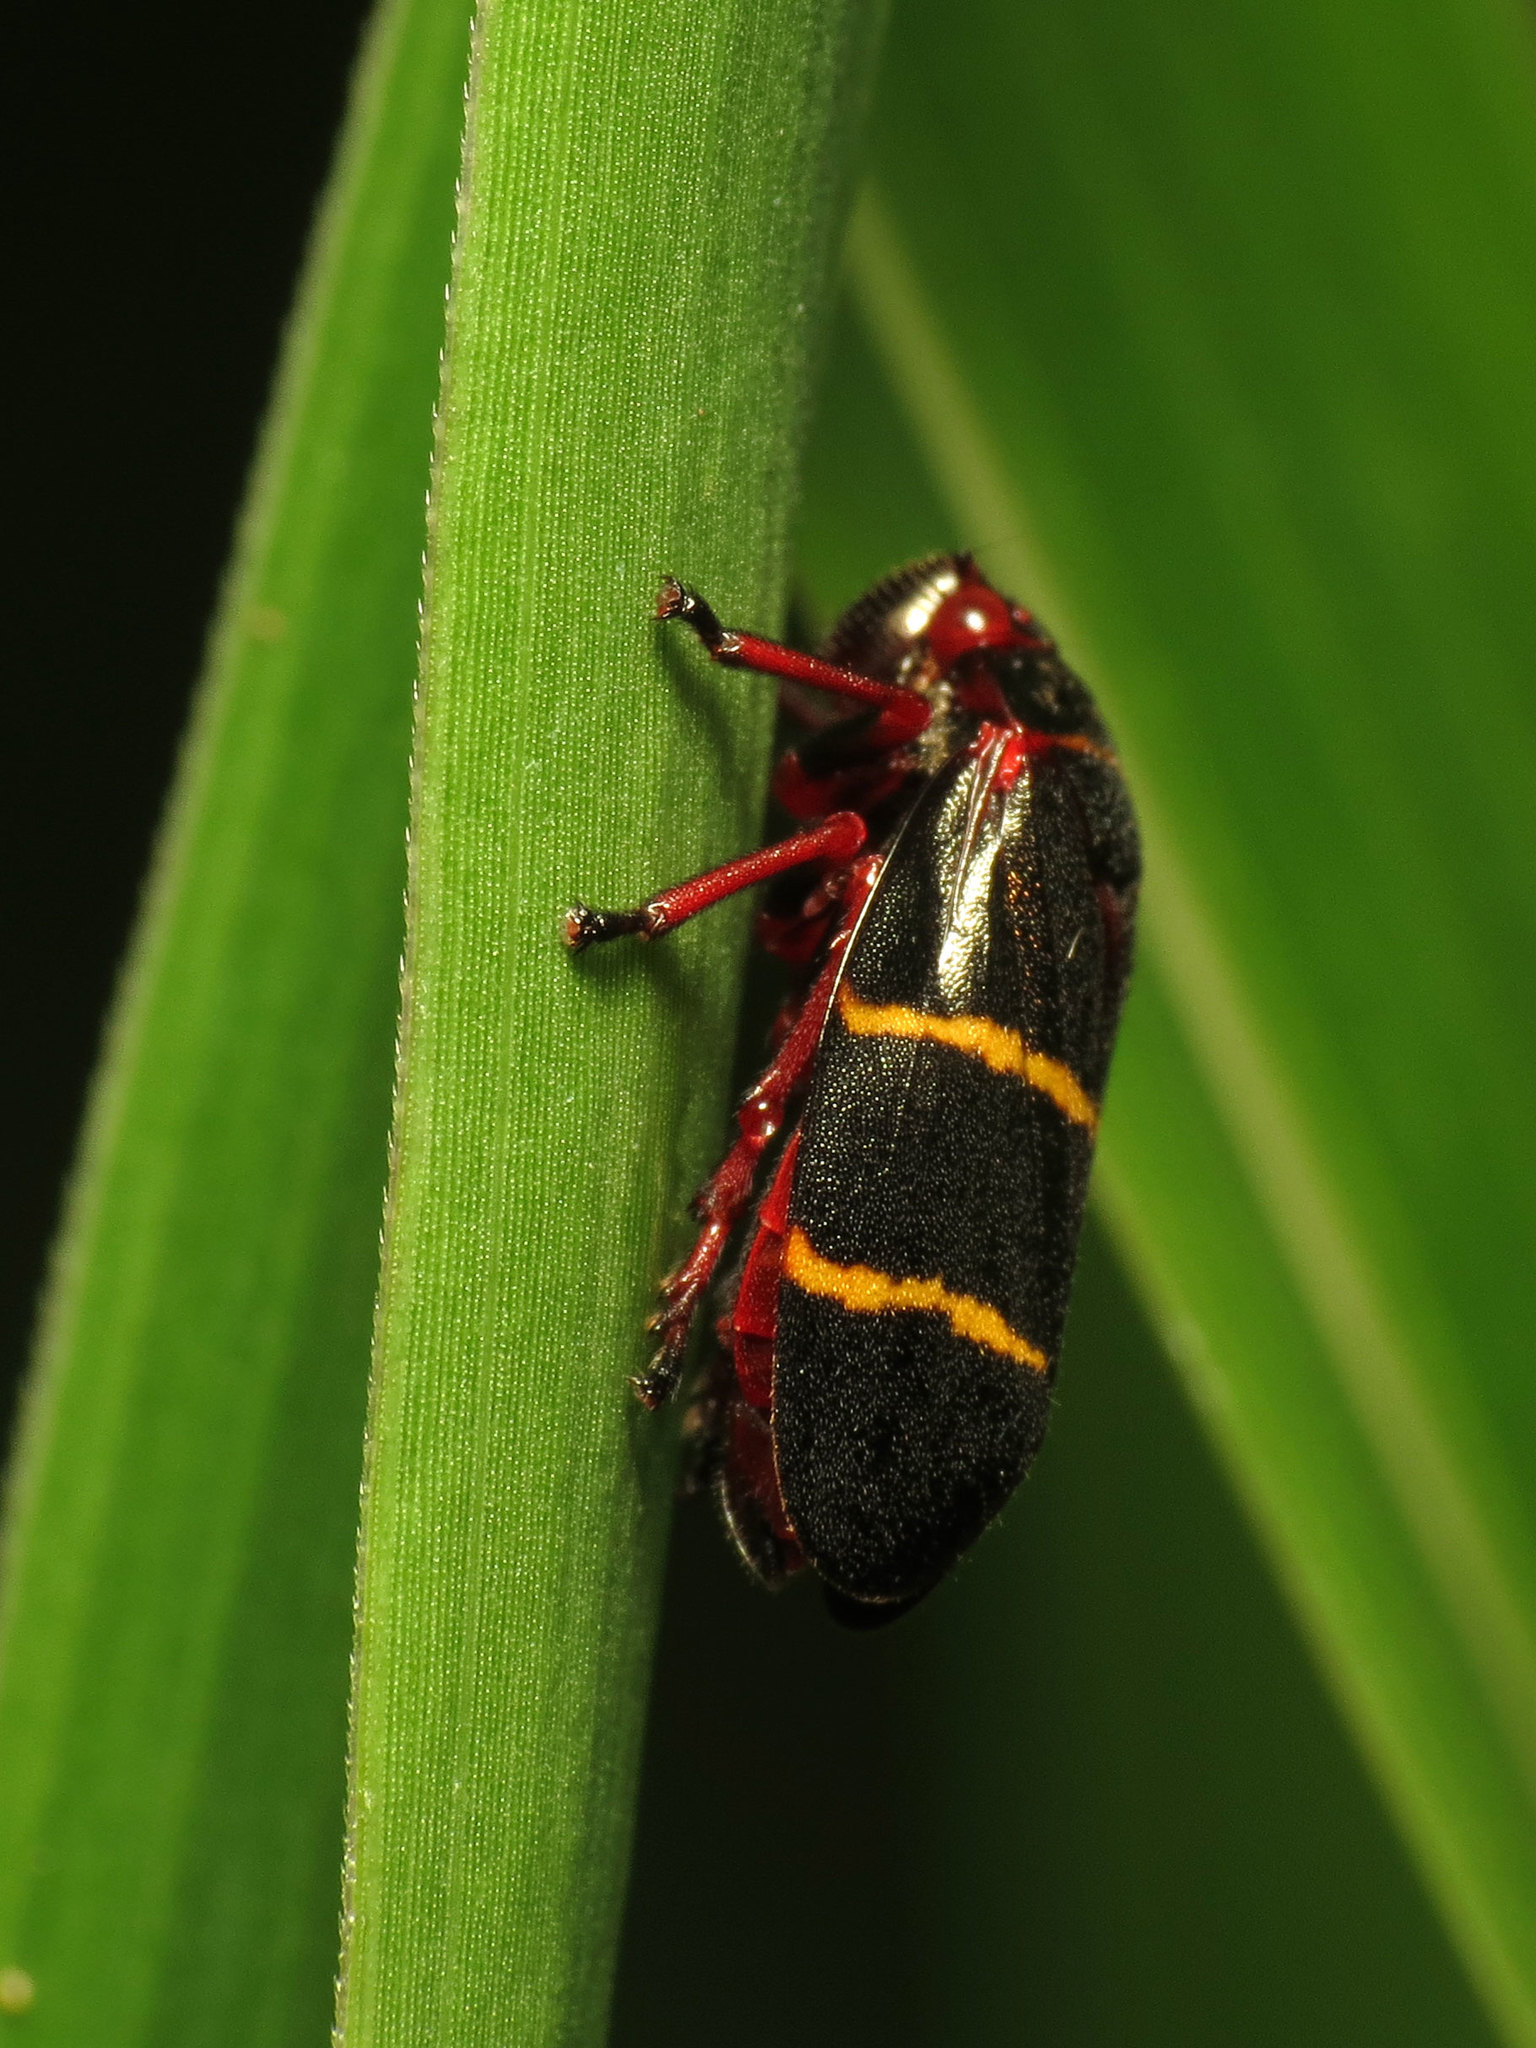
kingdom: Animalia
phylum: Arthropoda
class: Insecta
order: Hemiptera
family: Cercopidae
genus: Prosapia
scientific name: Prosapia bicincta
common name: Twolined spittlebug
